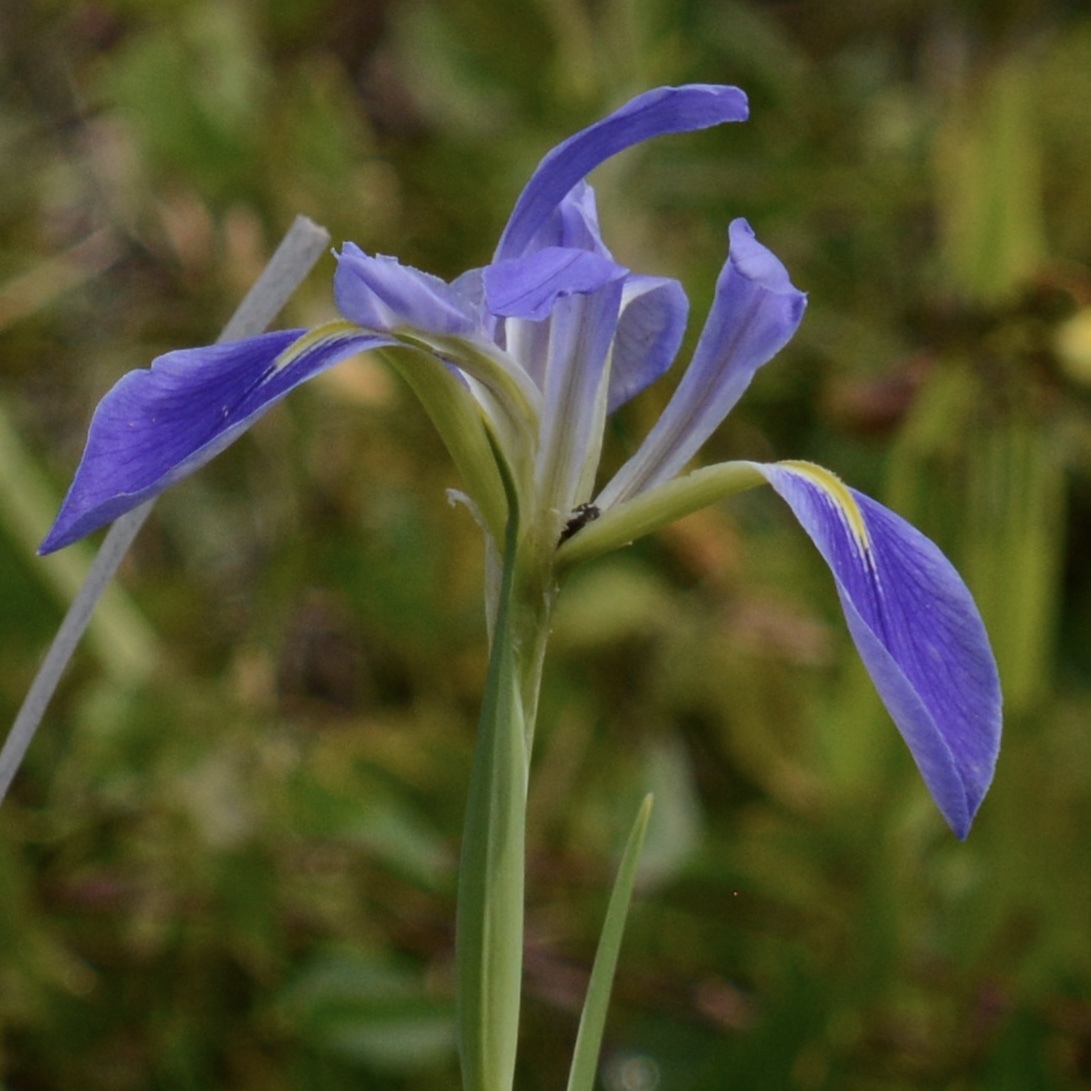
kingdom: Plantae
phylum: Tracheophyta
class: Liliopsida
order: Asparagales
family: Iridaceae
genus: Iris
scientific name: Iris savannarum
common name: Prairie iris
